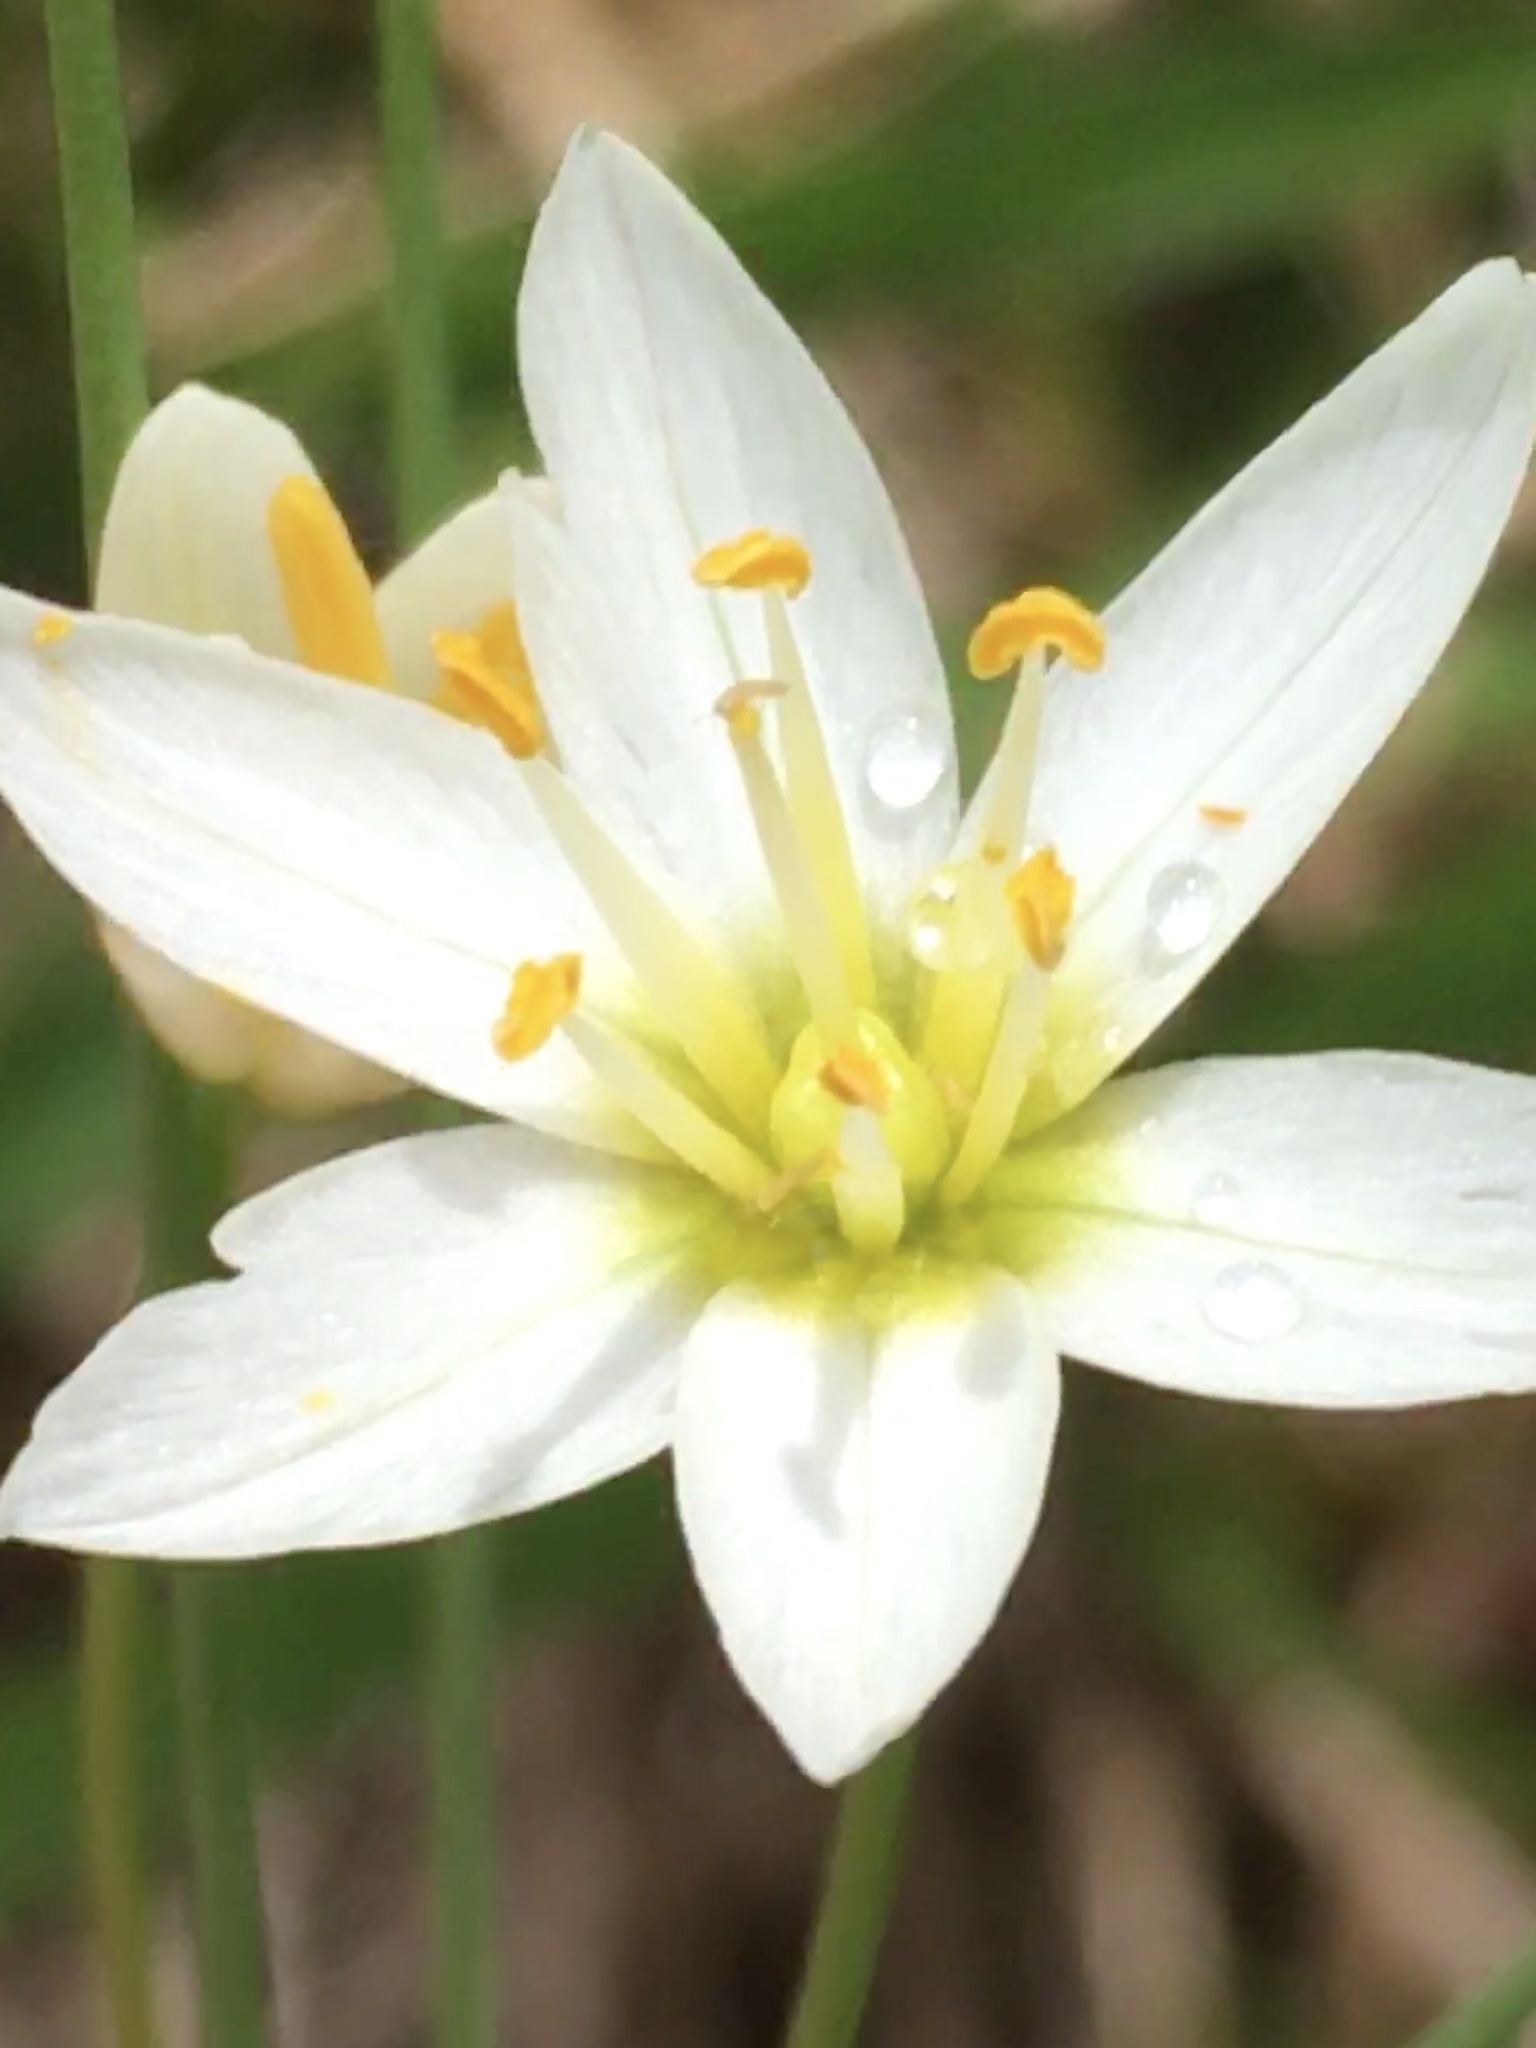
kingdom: Plantae
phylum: Tracheophyta
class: Liliopsida
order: Asparagales
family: Amaryllidaceae
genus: Nothoscordum
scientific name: Nothoscordum bivalve
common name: Crow-poison
